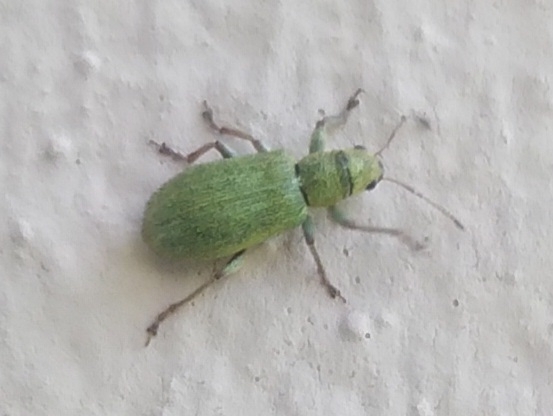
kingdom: Animalia
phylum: Arthropoda
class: Insecta
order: Coleoptera
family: Curculionidae
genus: Pachyrhinus
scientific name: Pachyrhinus lethierryi
